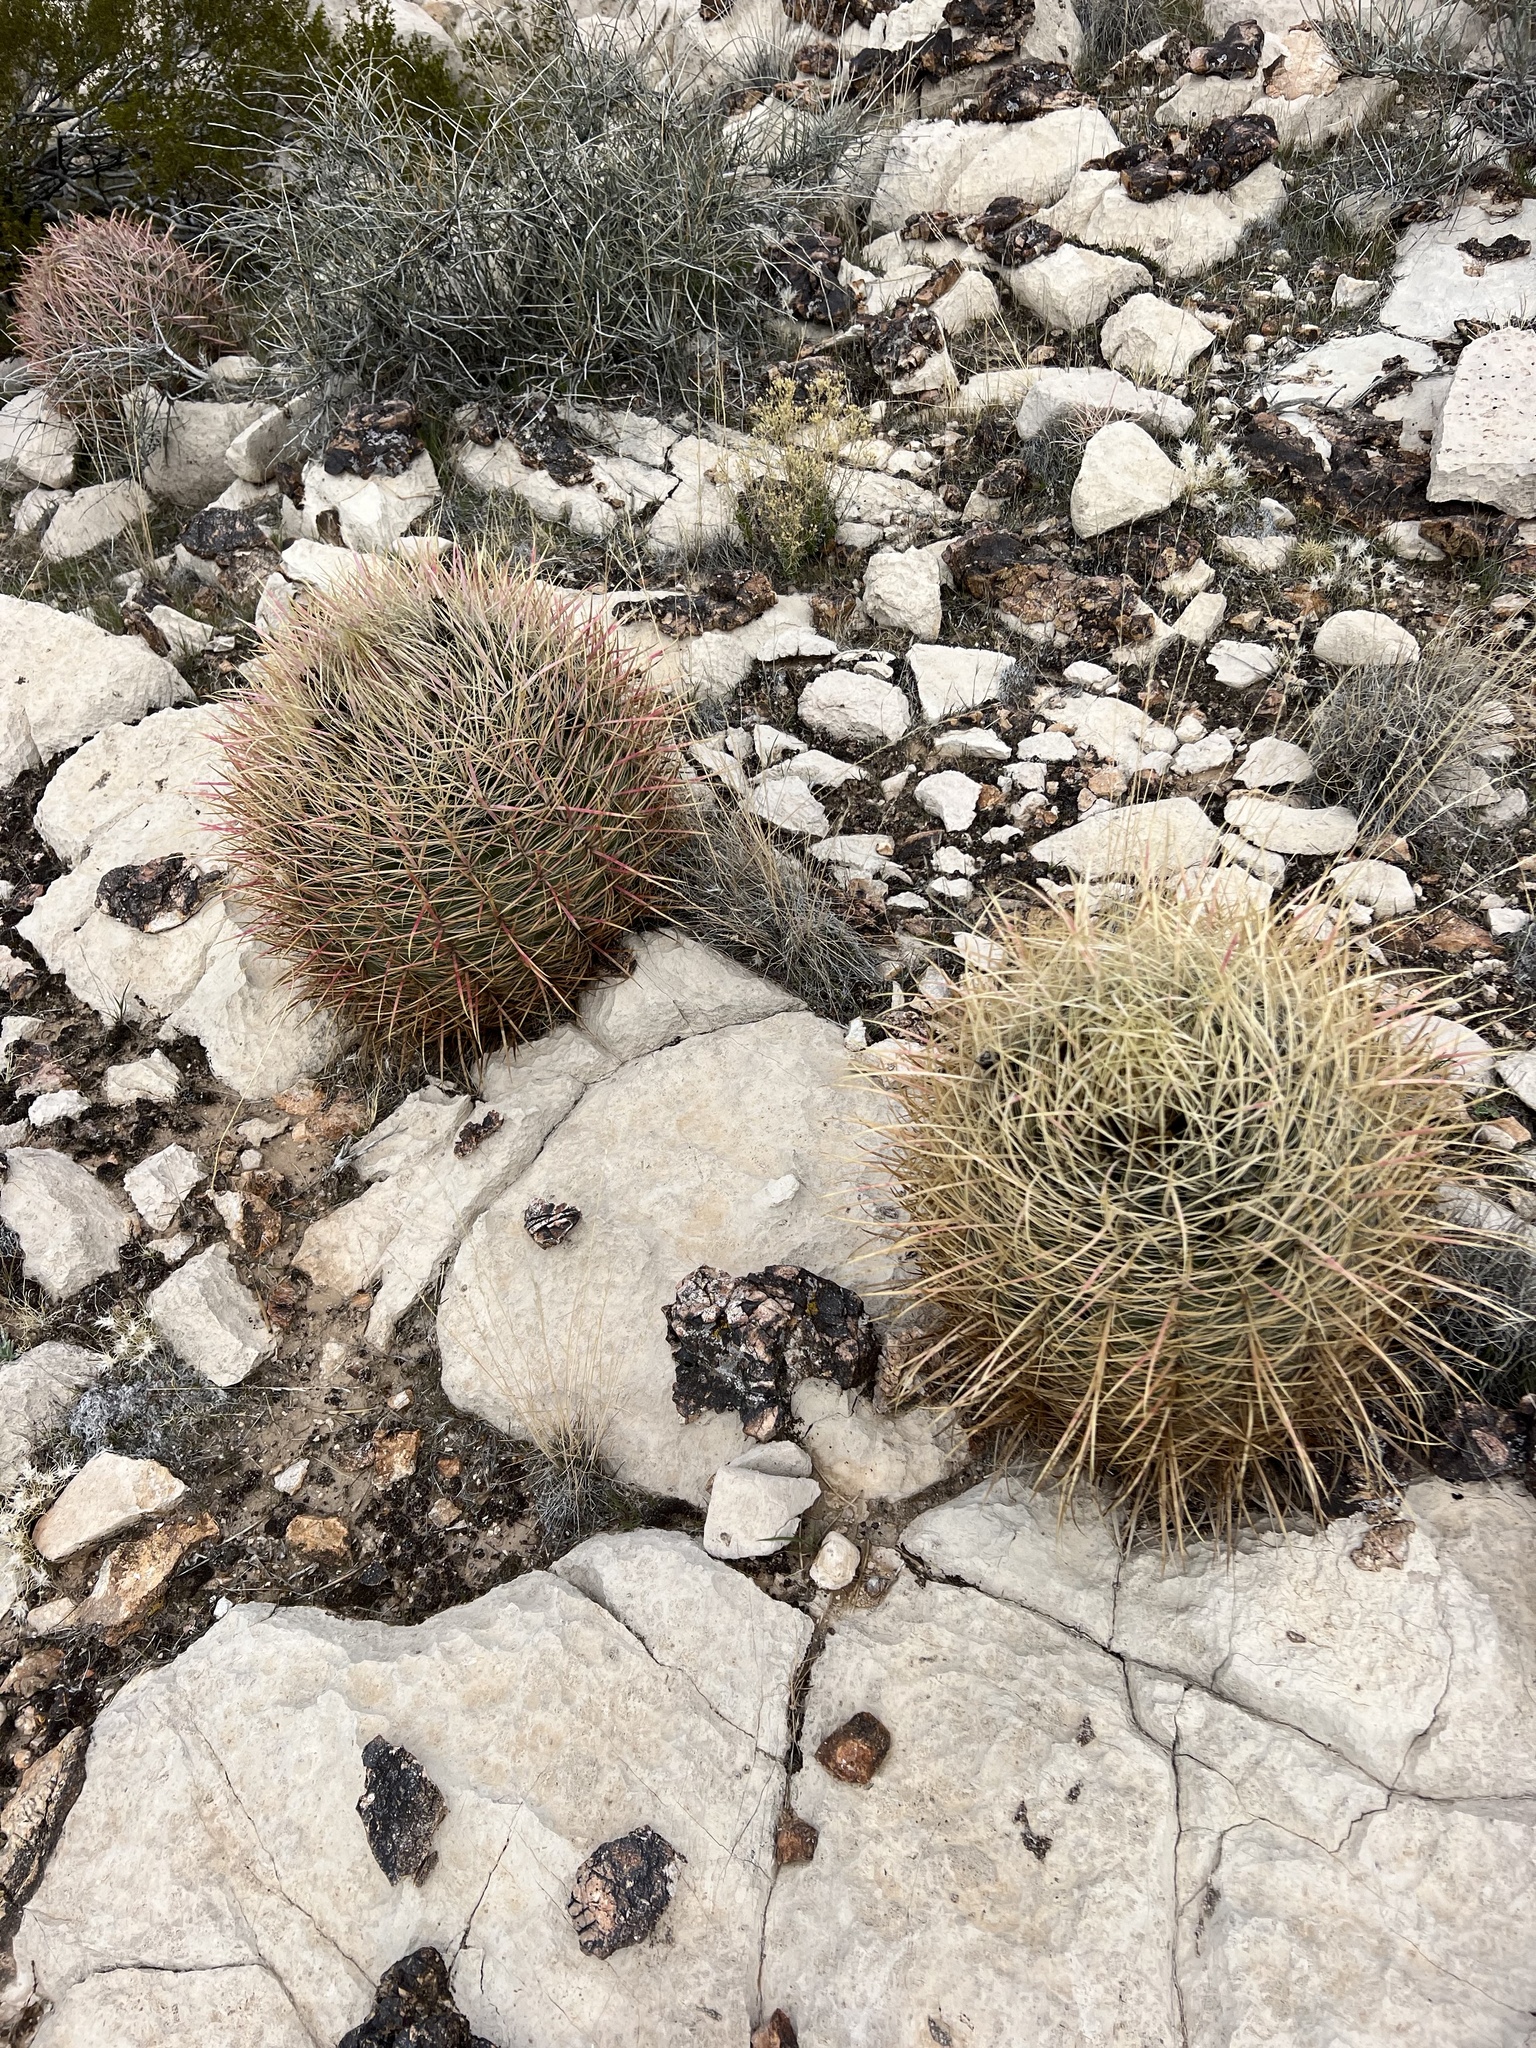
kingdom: Plantae
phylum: Tracheophyta
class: Magnoliopsida
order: Caryophyllales
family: Cactaceae
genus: Ferocactus
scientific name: Ferocactus cylindraceus
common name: California barrel cactus
